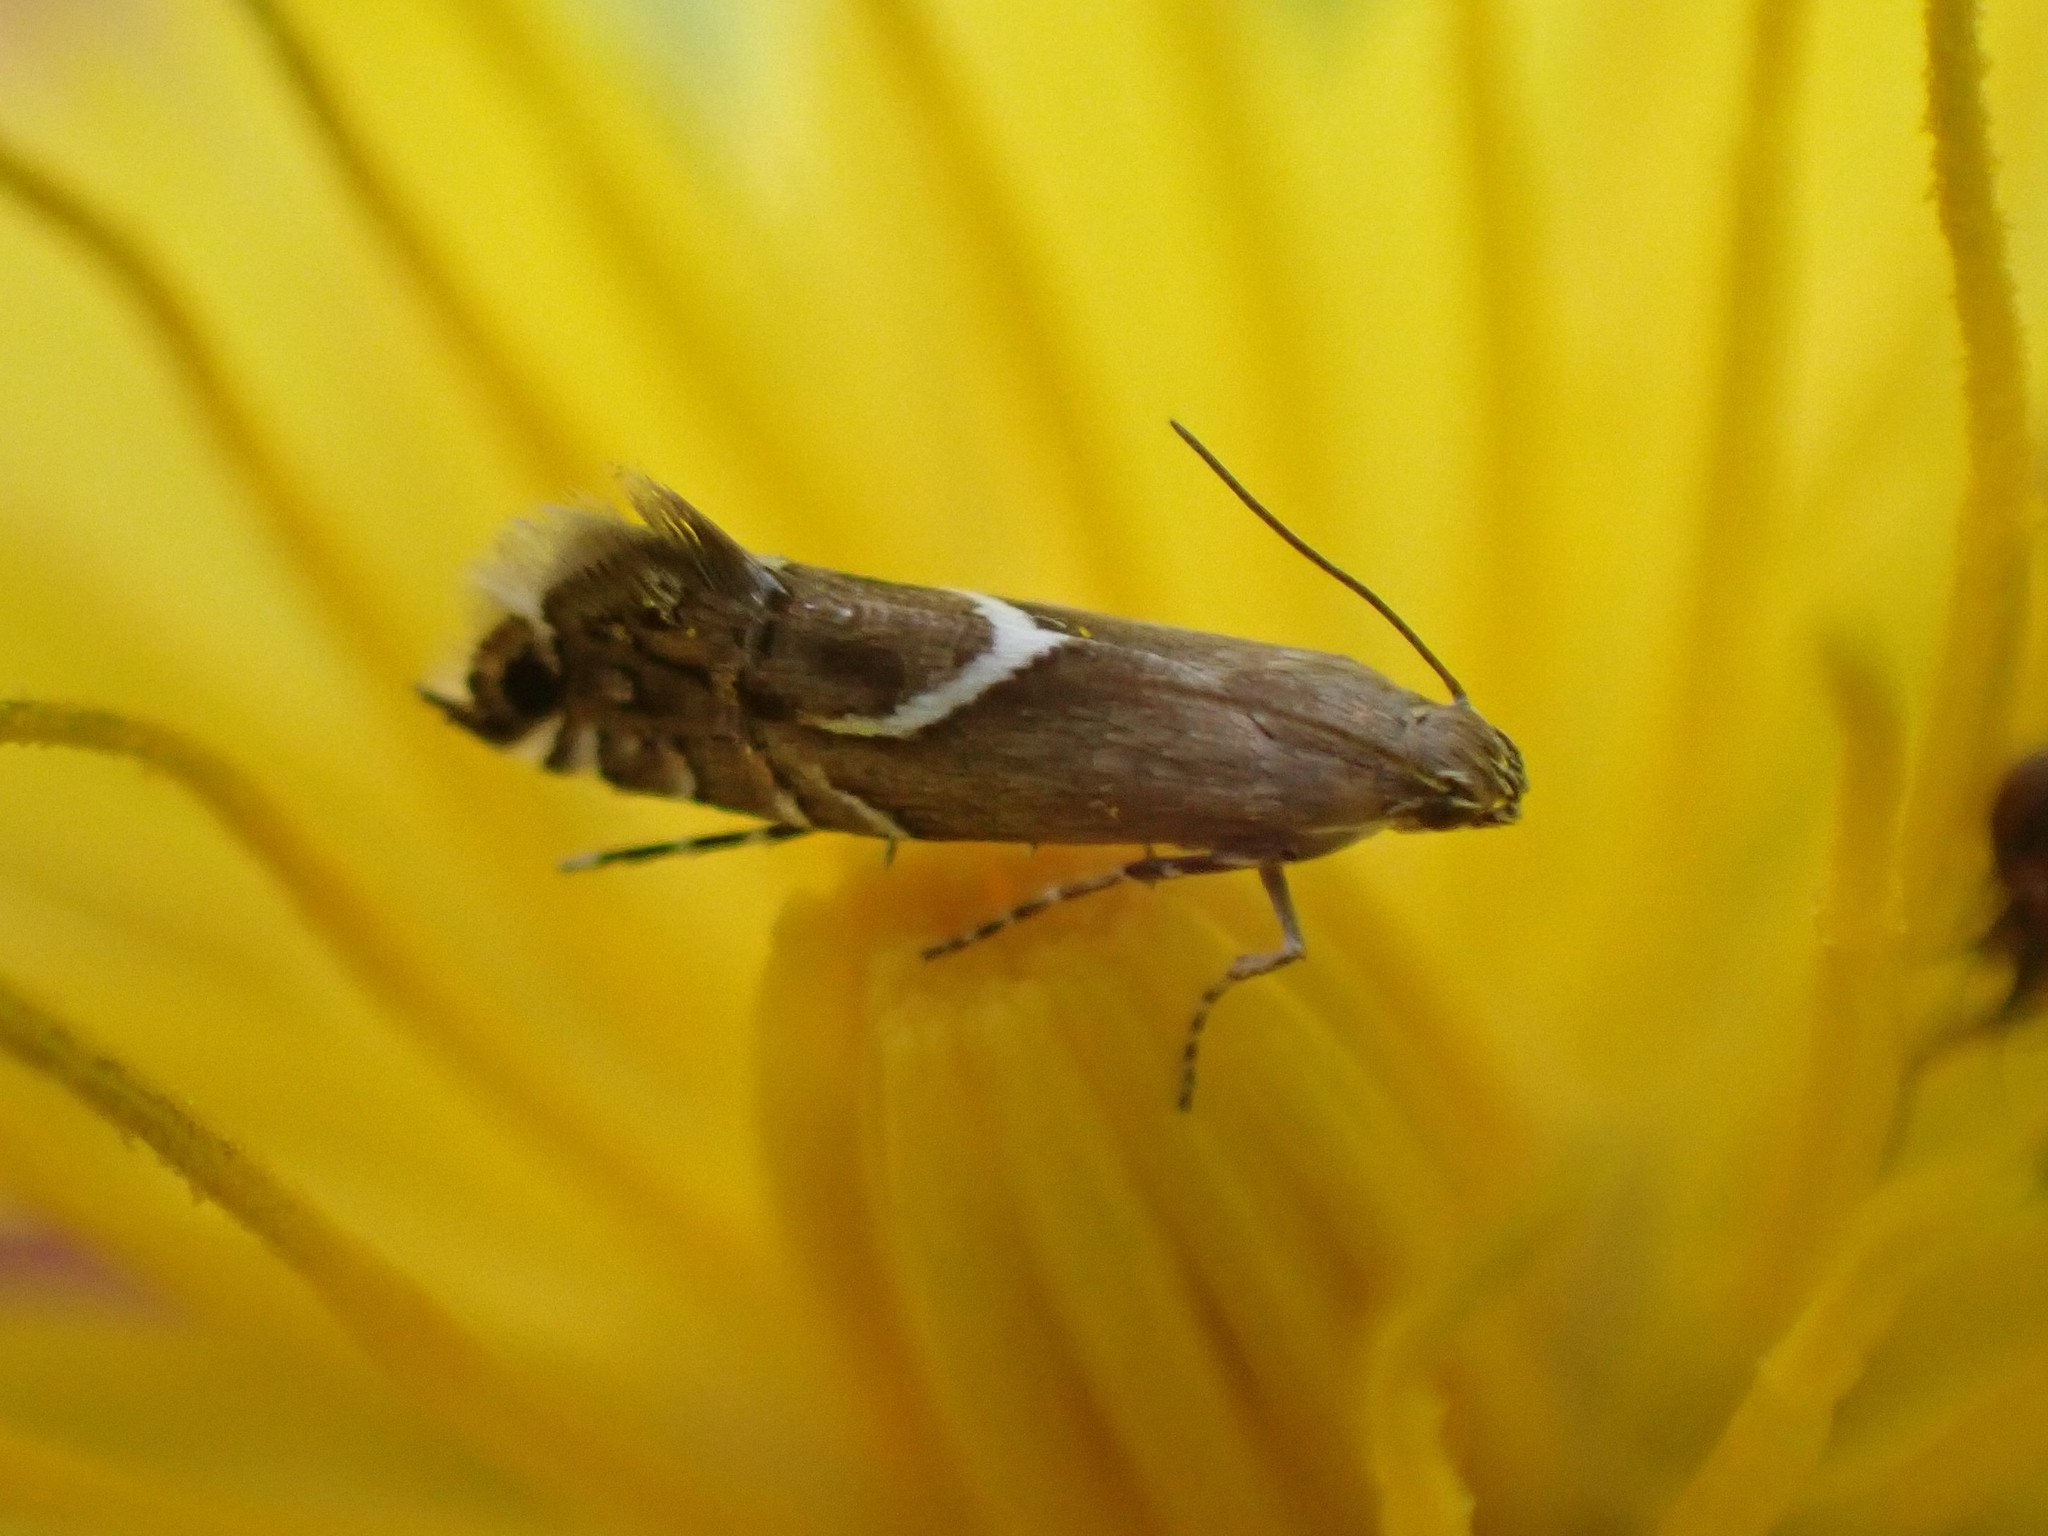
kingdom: Animalia
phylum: Arthropoda
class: Insecta
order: Lepidoptera
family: Glyphipterigidae
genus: Glyphipterix
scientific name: Glyphipterix Diploschizia impigritella
